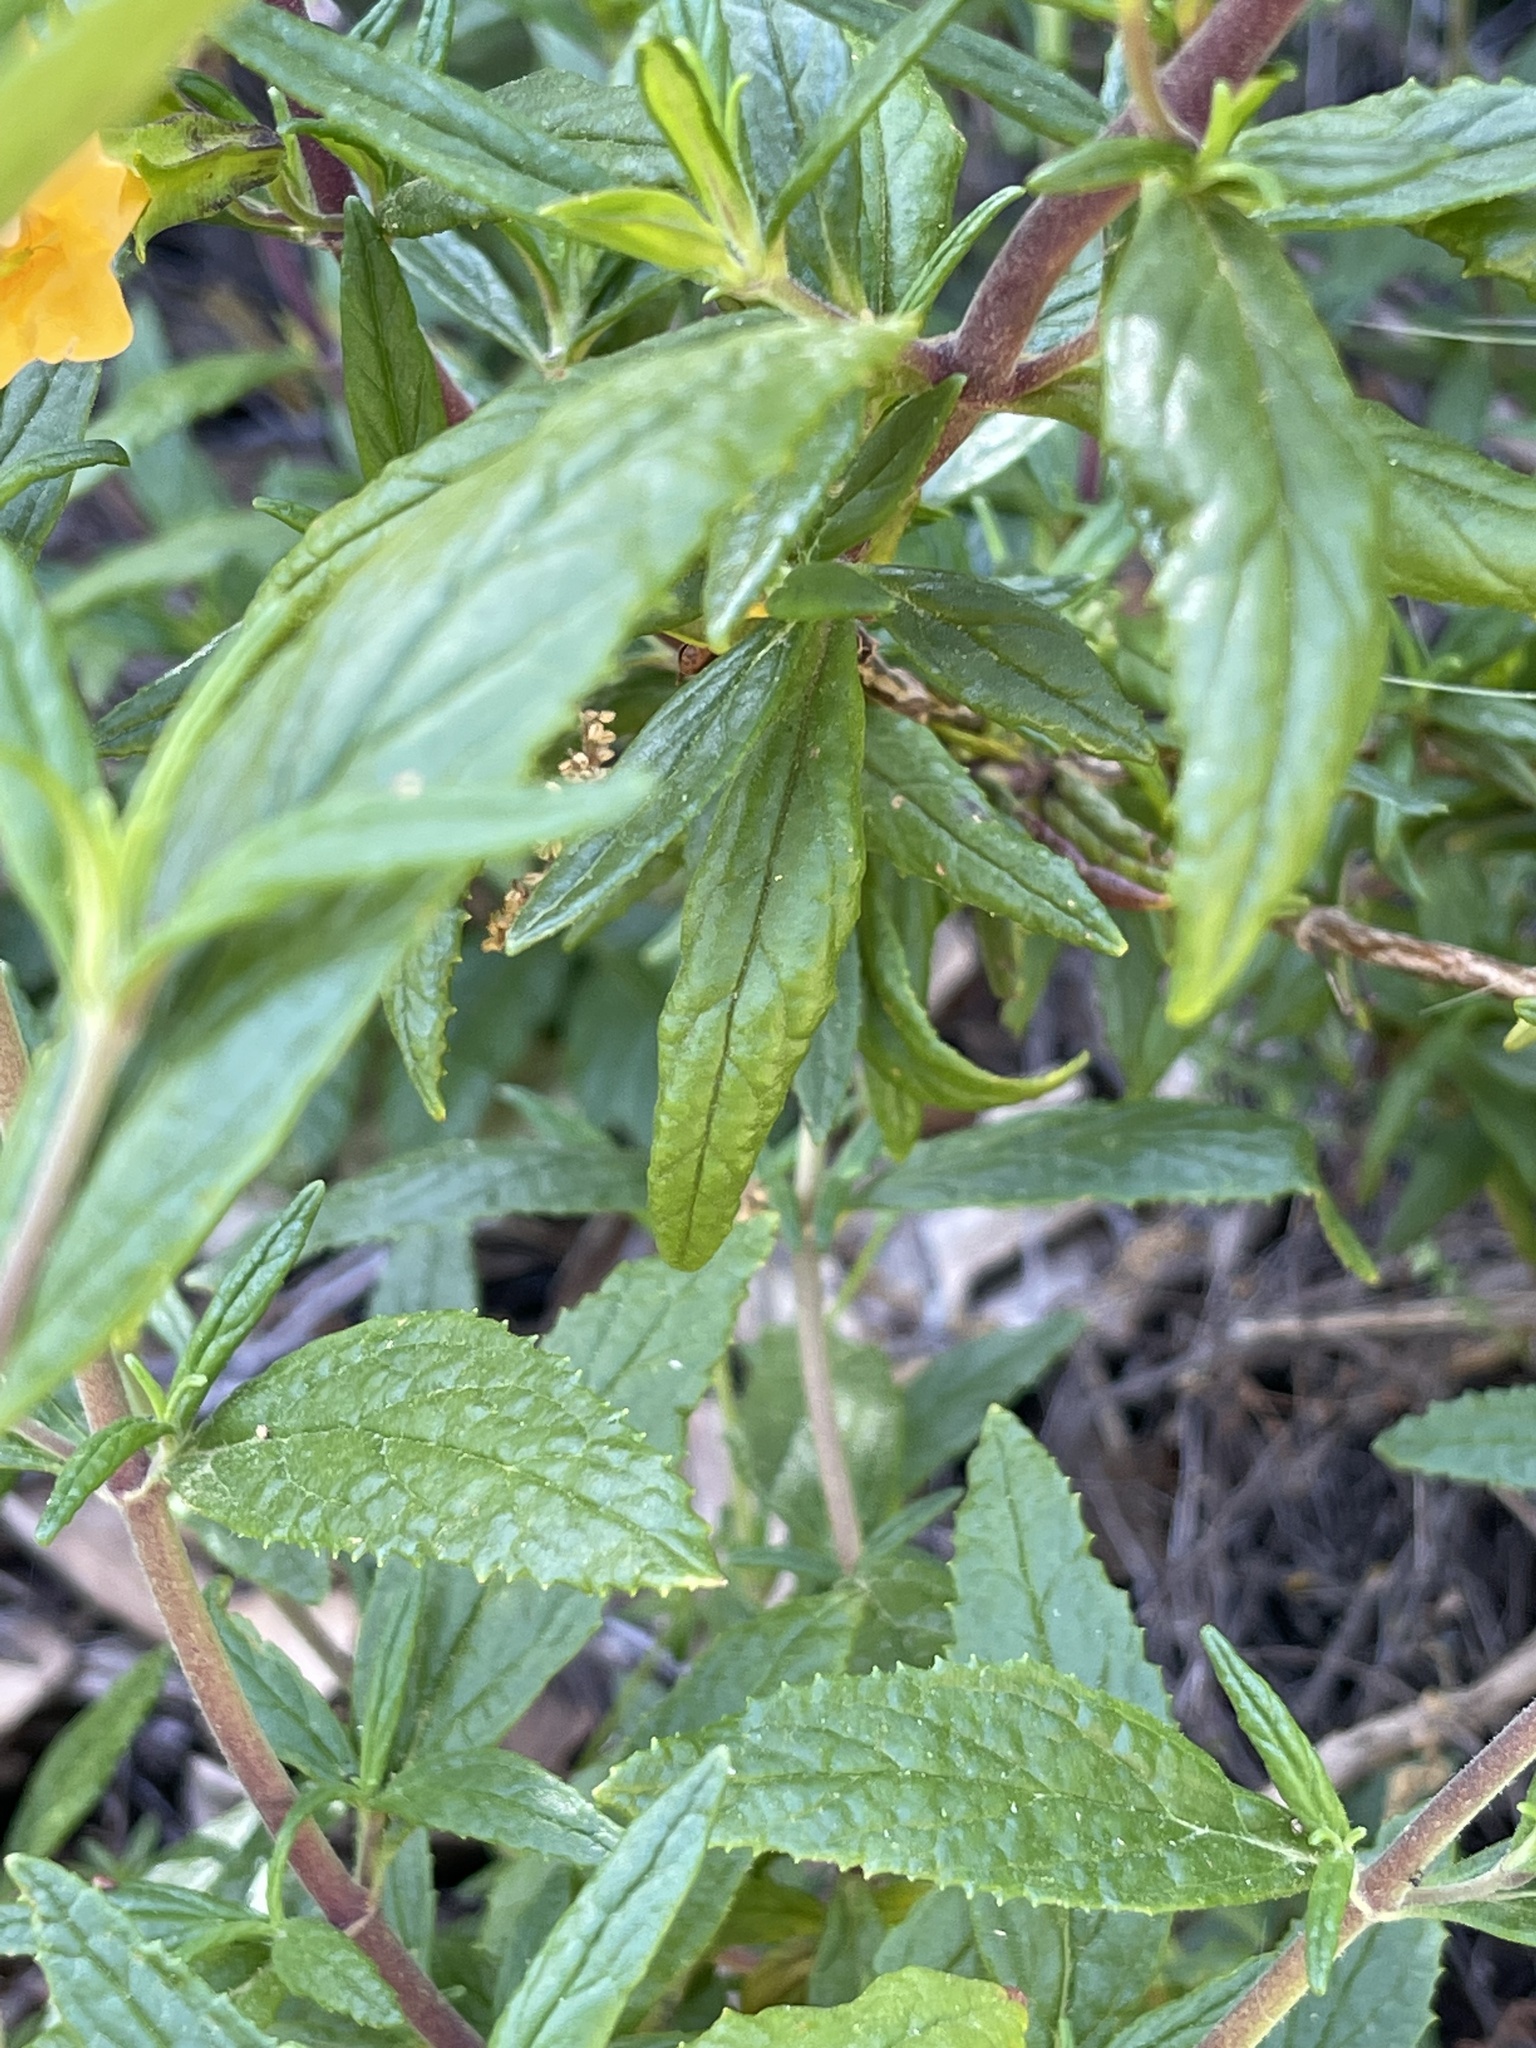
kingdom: Plantae
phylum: Tracheophyta
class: Magnoliopsida
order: Lamiales
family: Phrymaceae
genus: Diplacus
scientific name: Diplacus aurantiacus
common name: Bush monkey-flower
